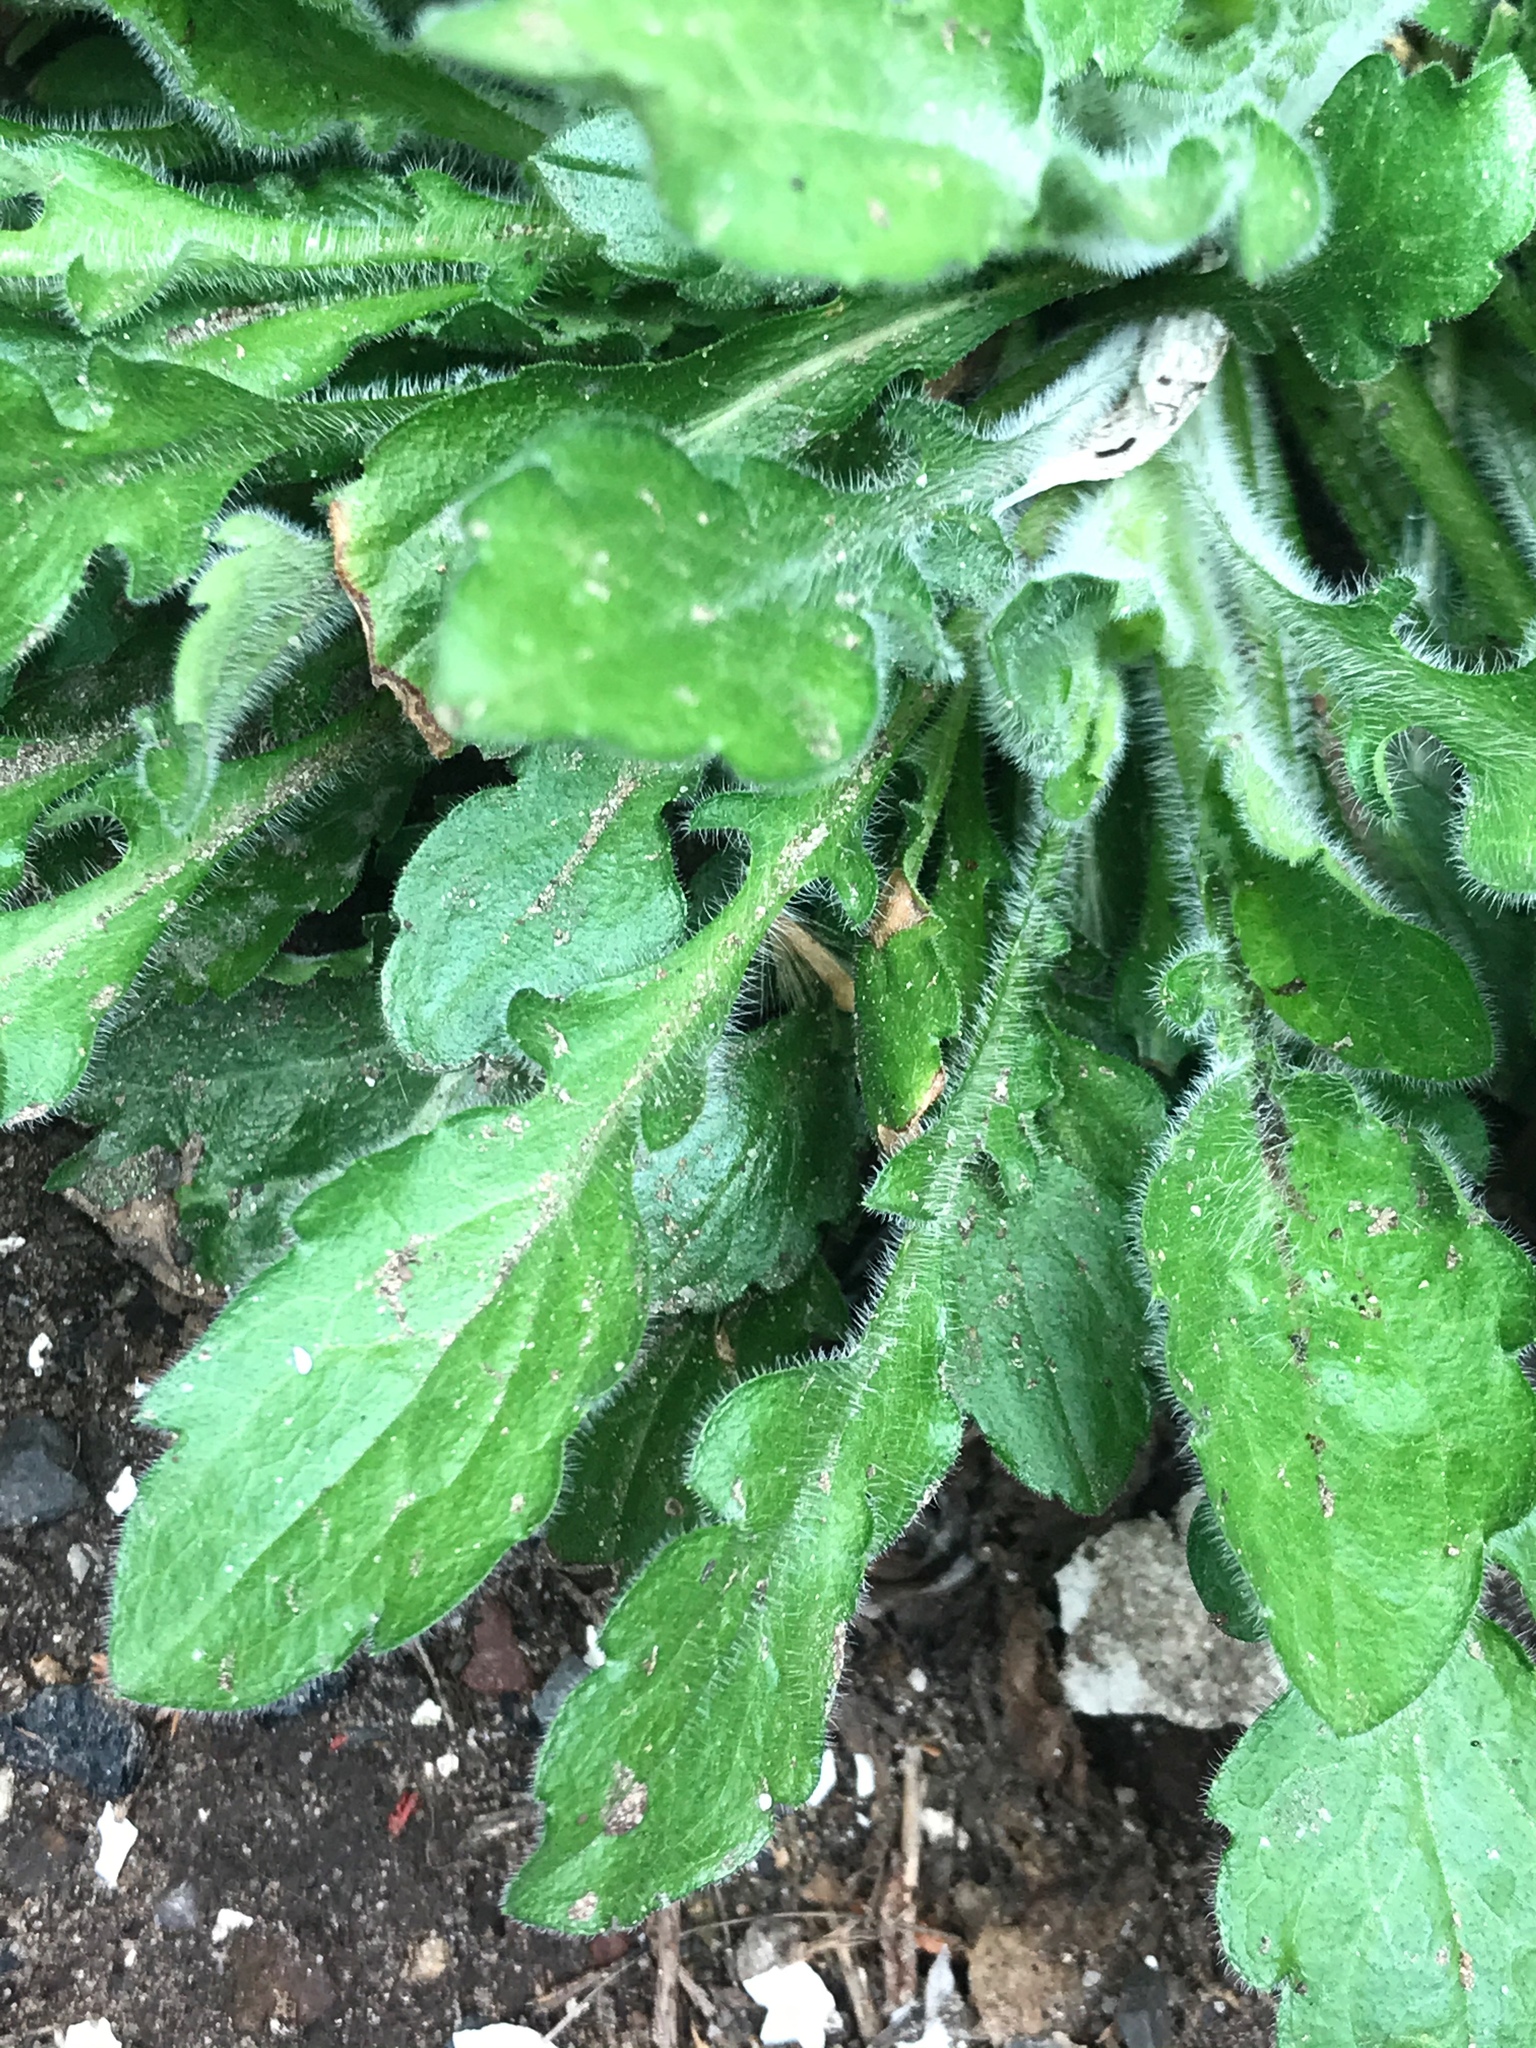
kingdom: Plantae
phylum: Tracheophyta
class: Magnoliopsida
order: Asterales
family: Asteraceae
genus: Erigeron
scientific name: Erigeron canadensis
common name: Canadian fleabane
